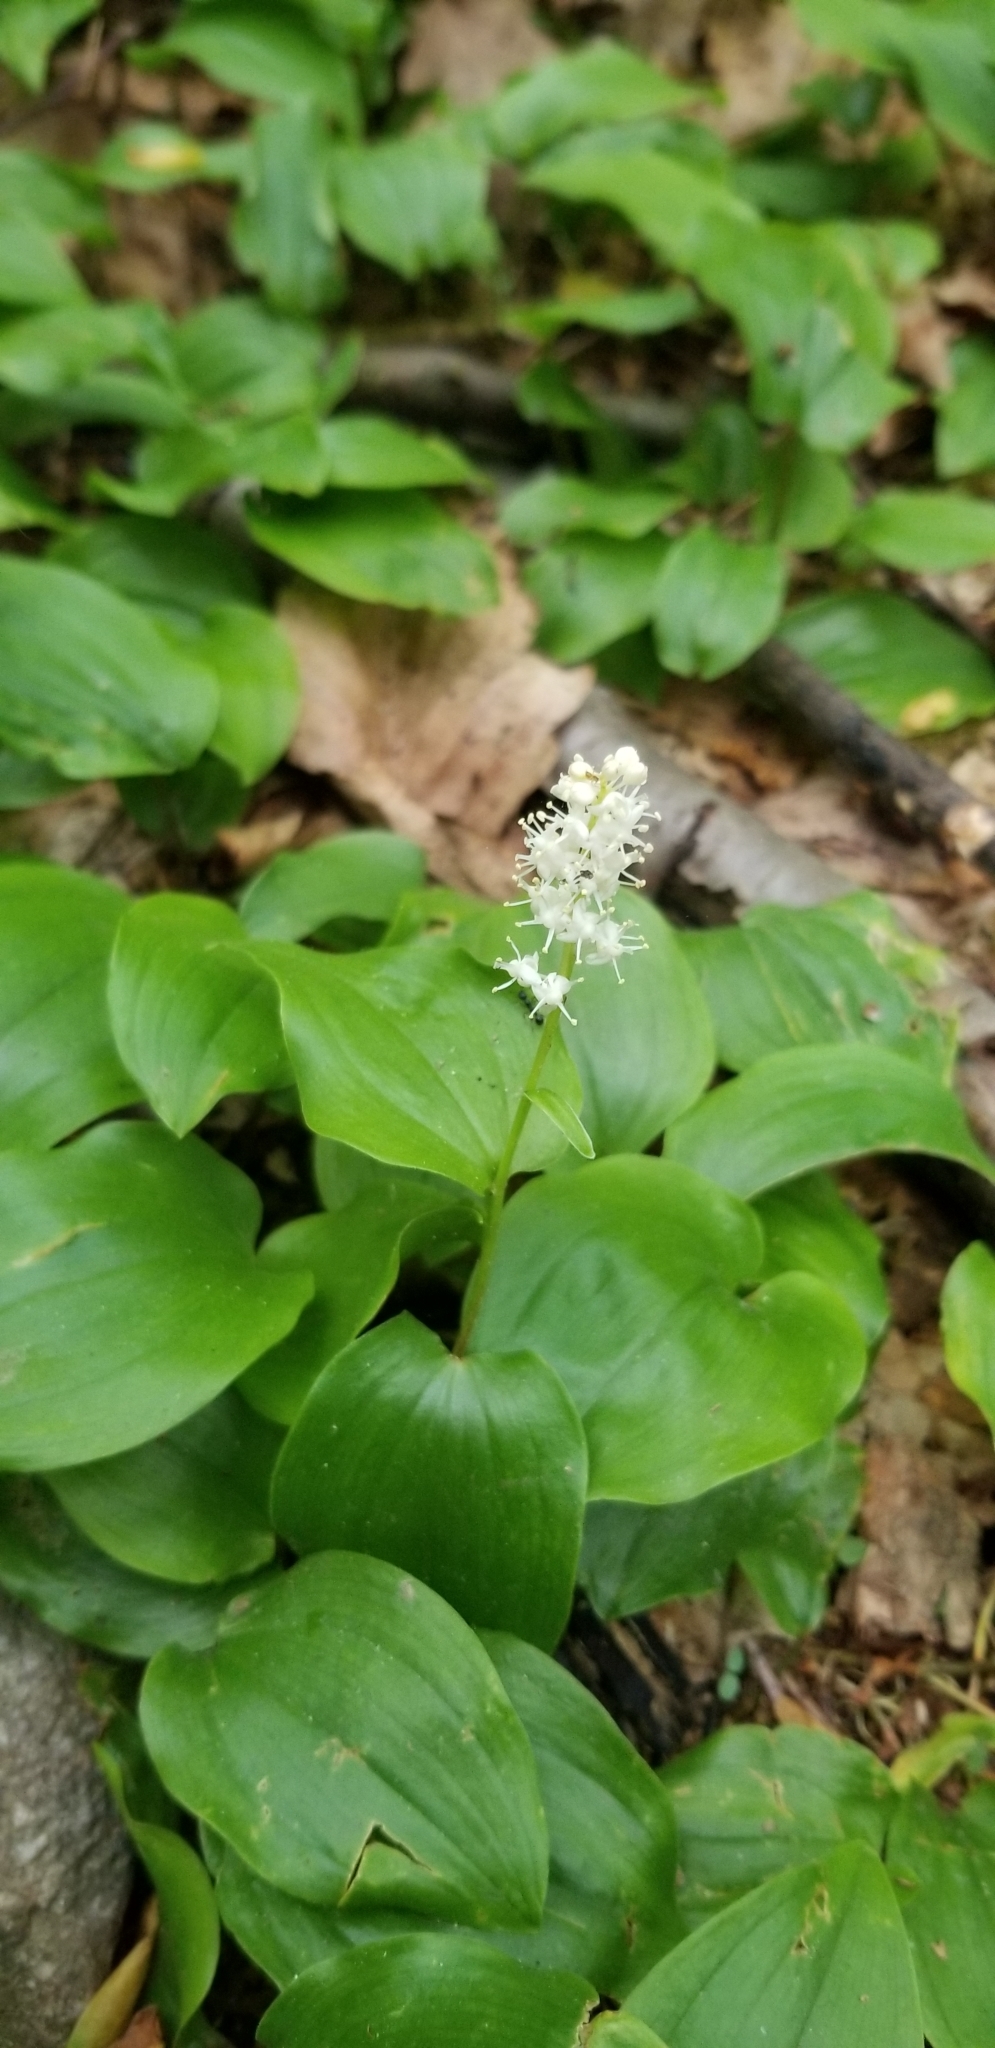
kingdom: Plantae
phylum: Tracheophyta
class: Liliopsida
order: Asparagales
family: Asparagaceae
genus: Maianthemum
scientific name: Maianthemum canadense
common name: False lily-of-the-valley
